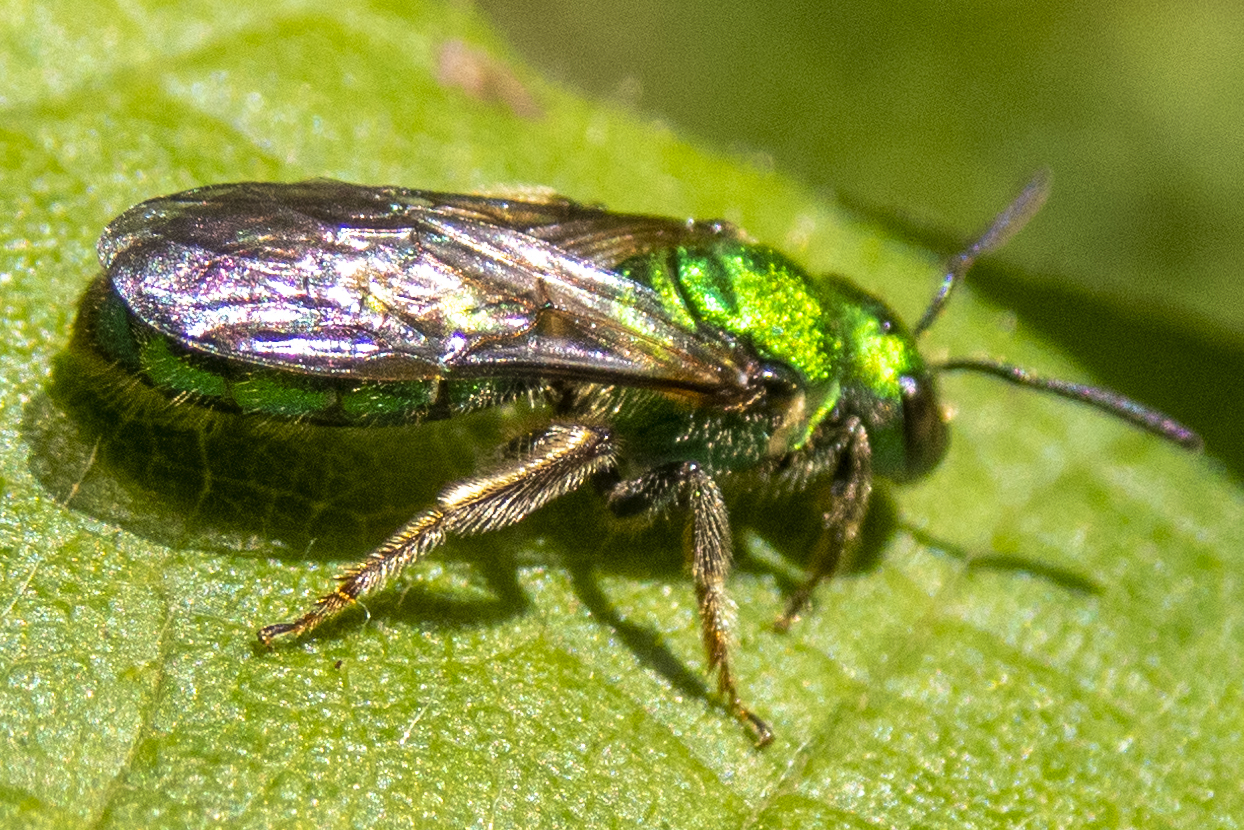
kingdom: Animalia
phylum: Arthropoda
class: Insecta
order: Hymenoptera
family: Halictidae
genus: Augochlora
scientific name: Augochlora pura
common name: Pure green sweat bee
